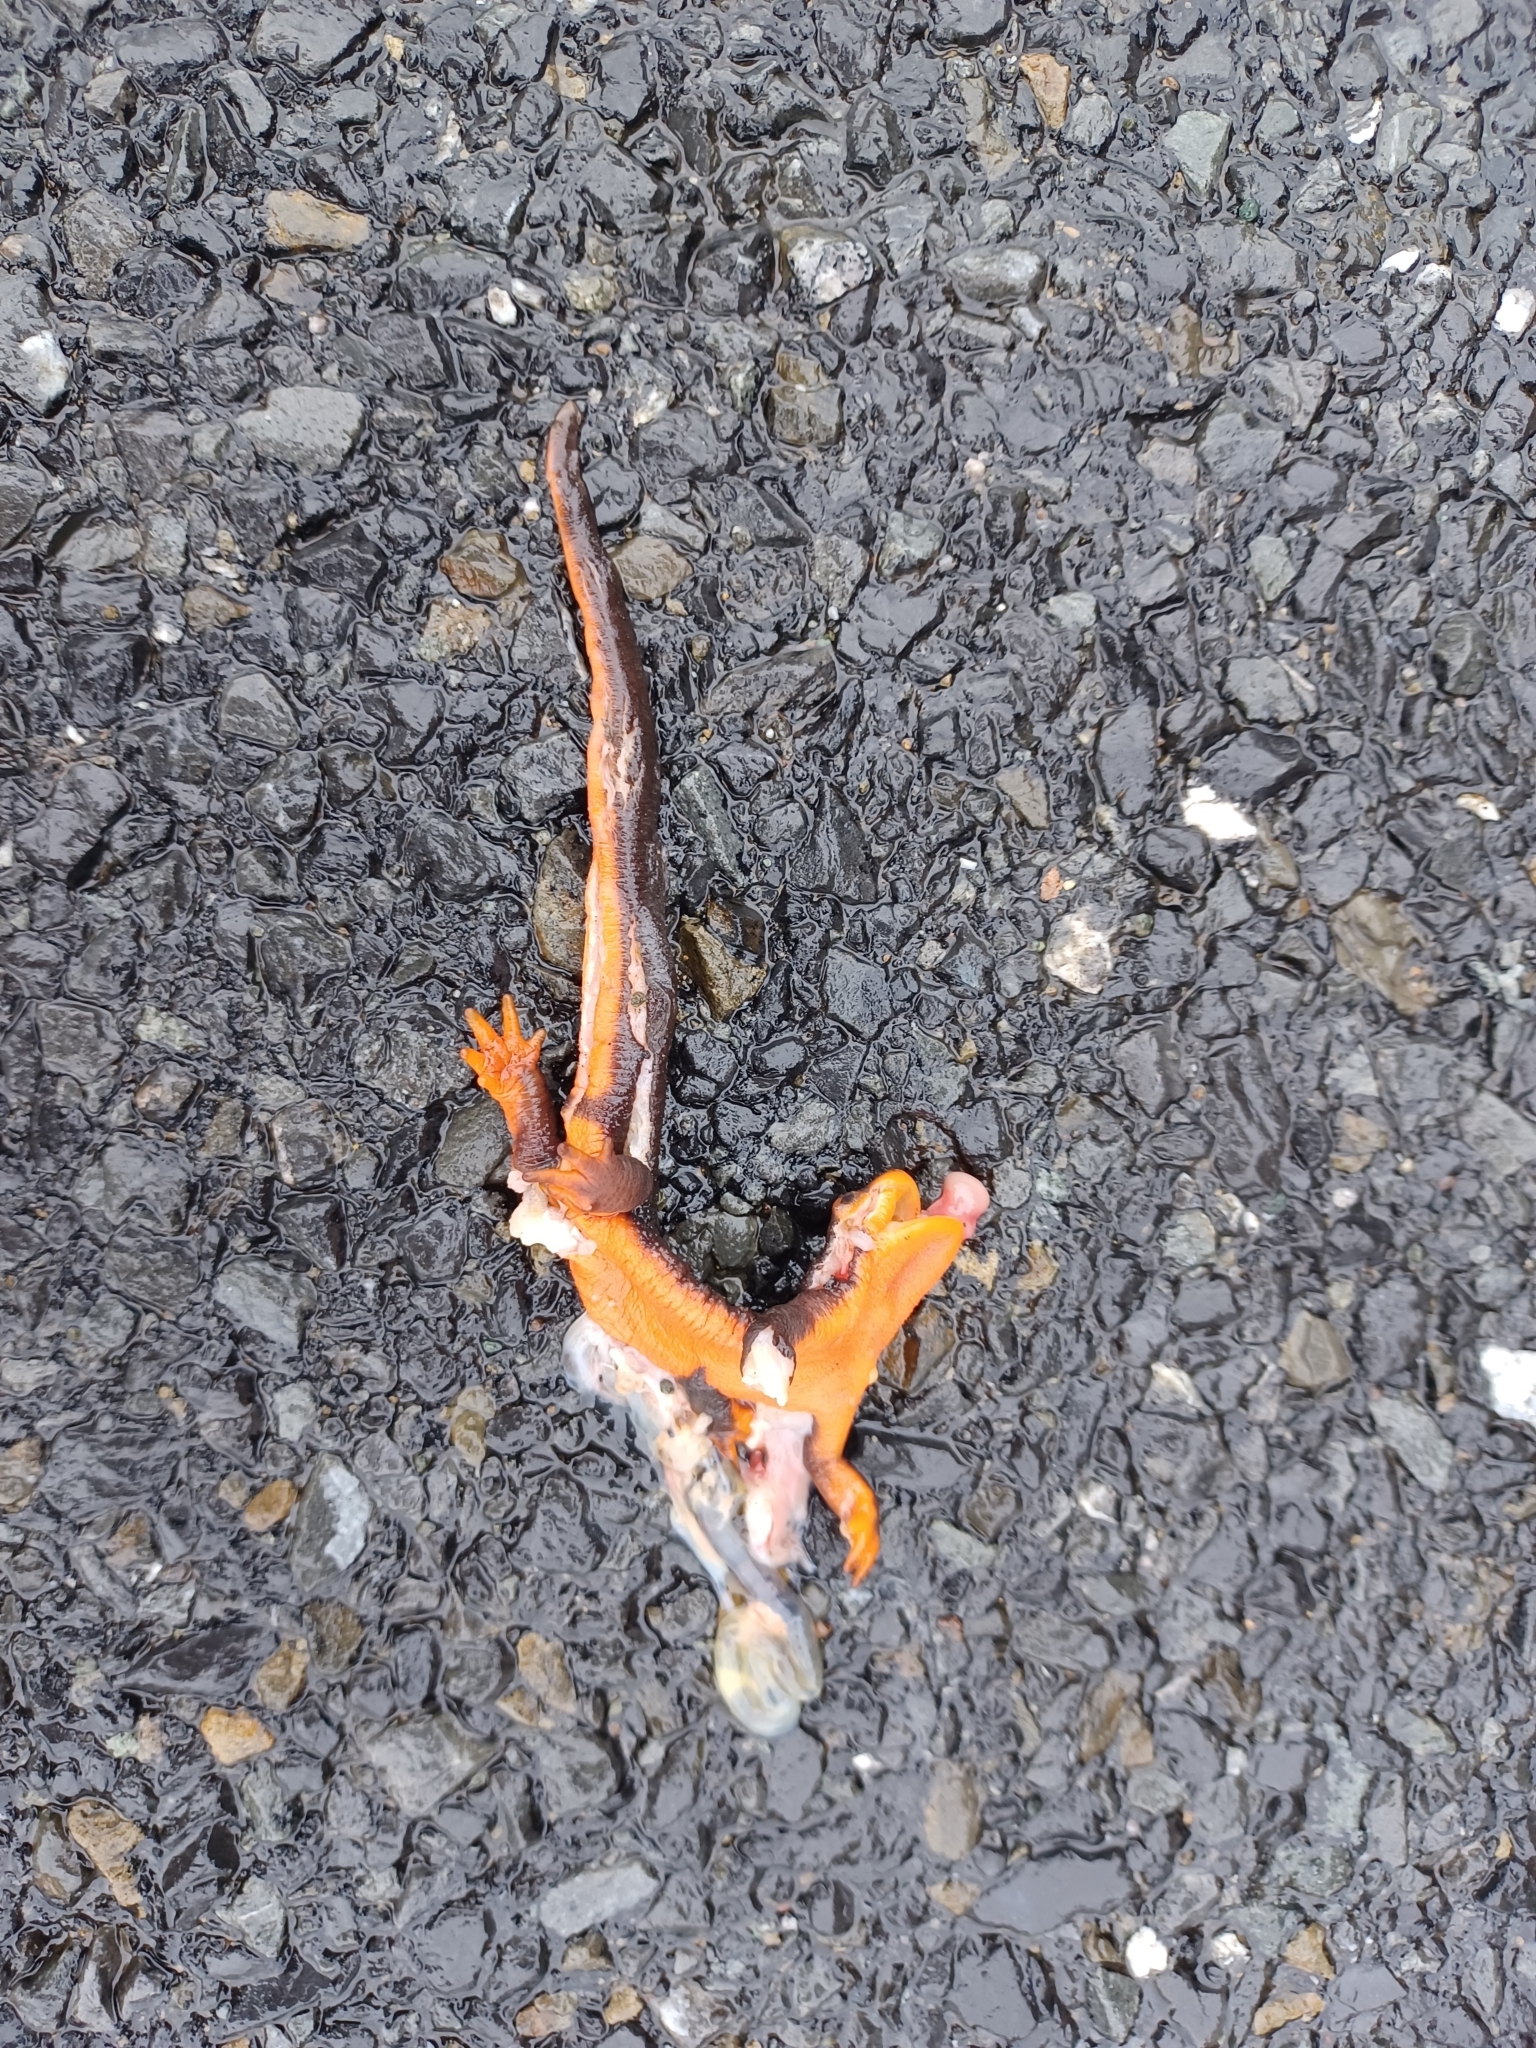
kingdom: Animalia
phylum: Chordata
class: Amphibia
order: Caudata
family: Salamandridae
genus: Taricha
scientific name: Taricha torosa
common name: California newt
